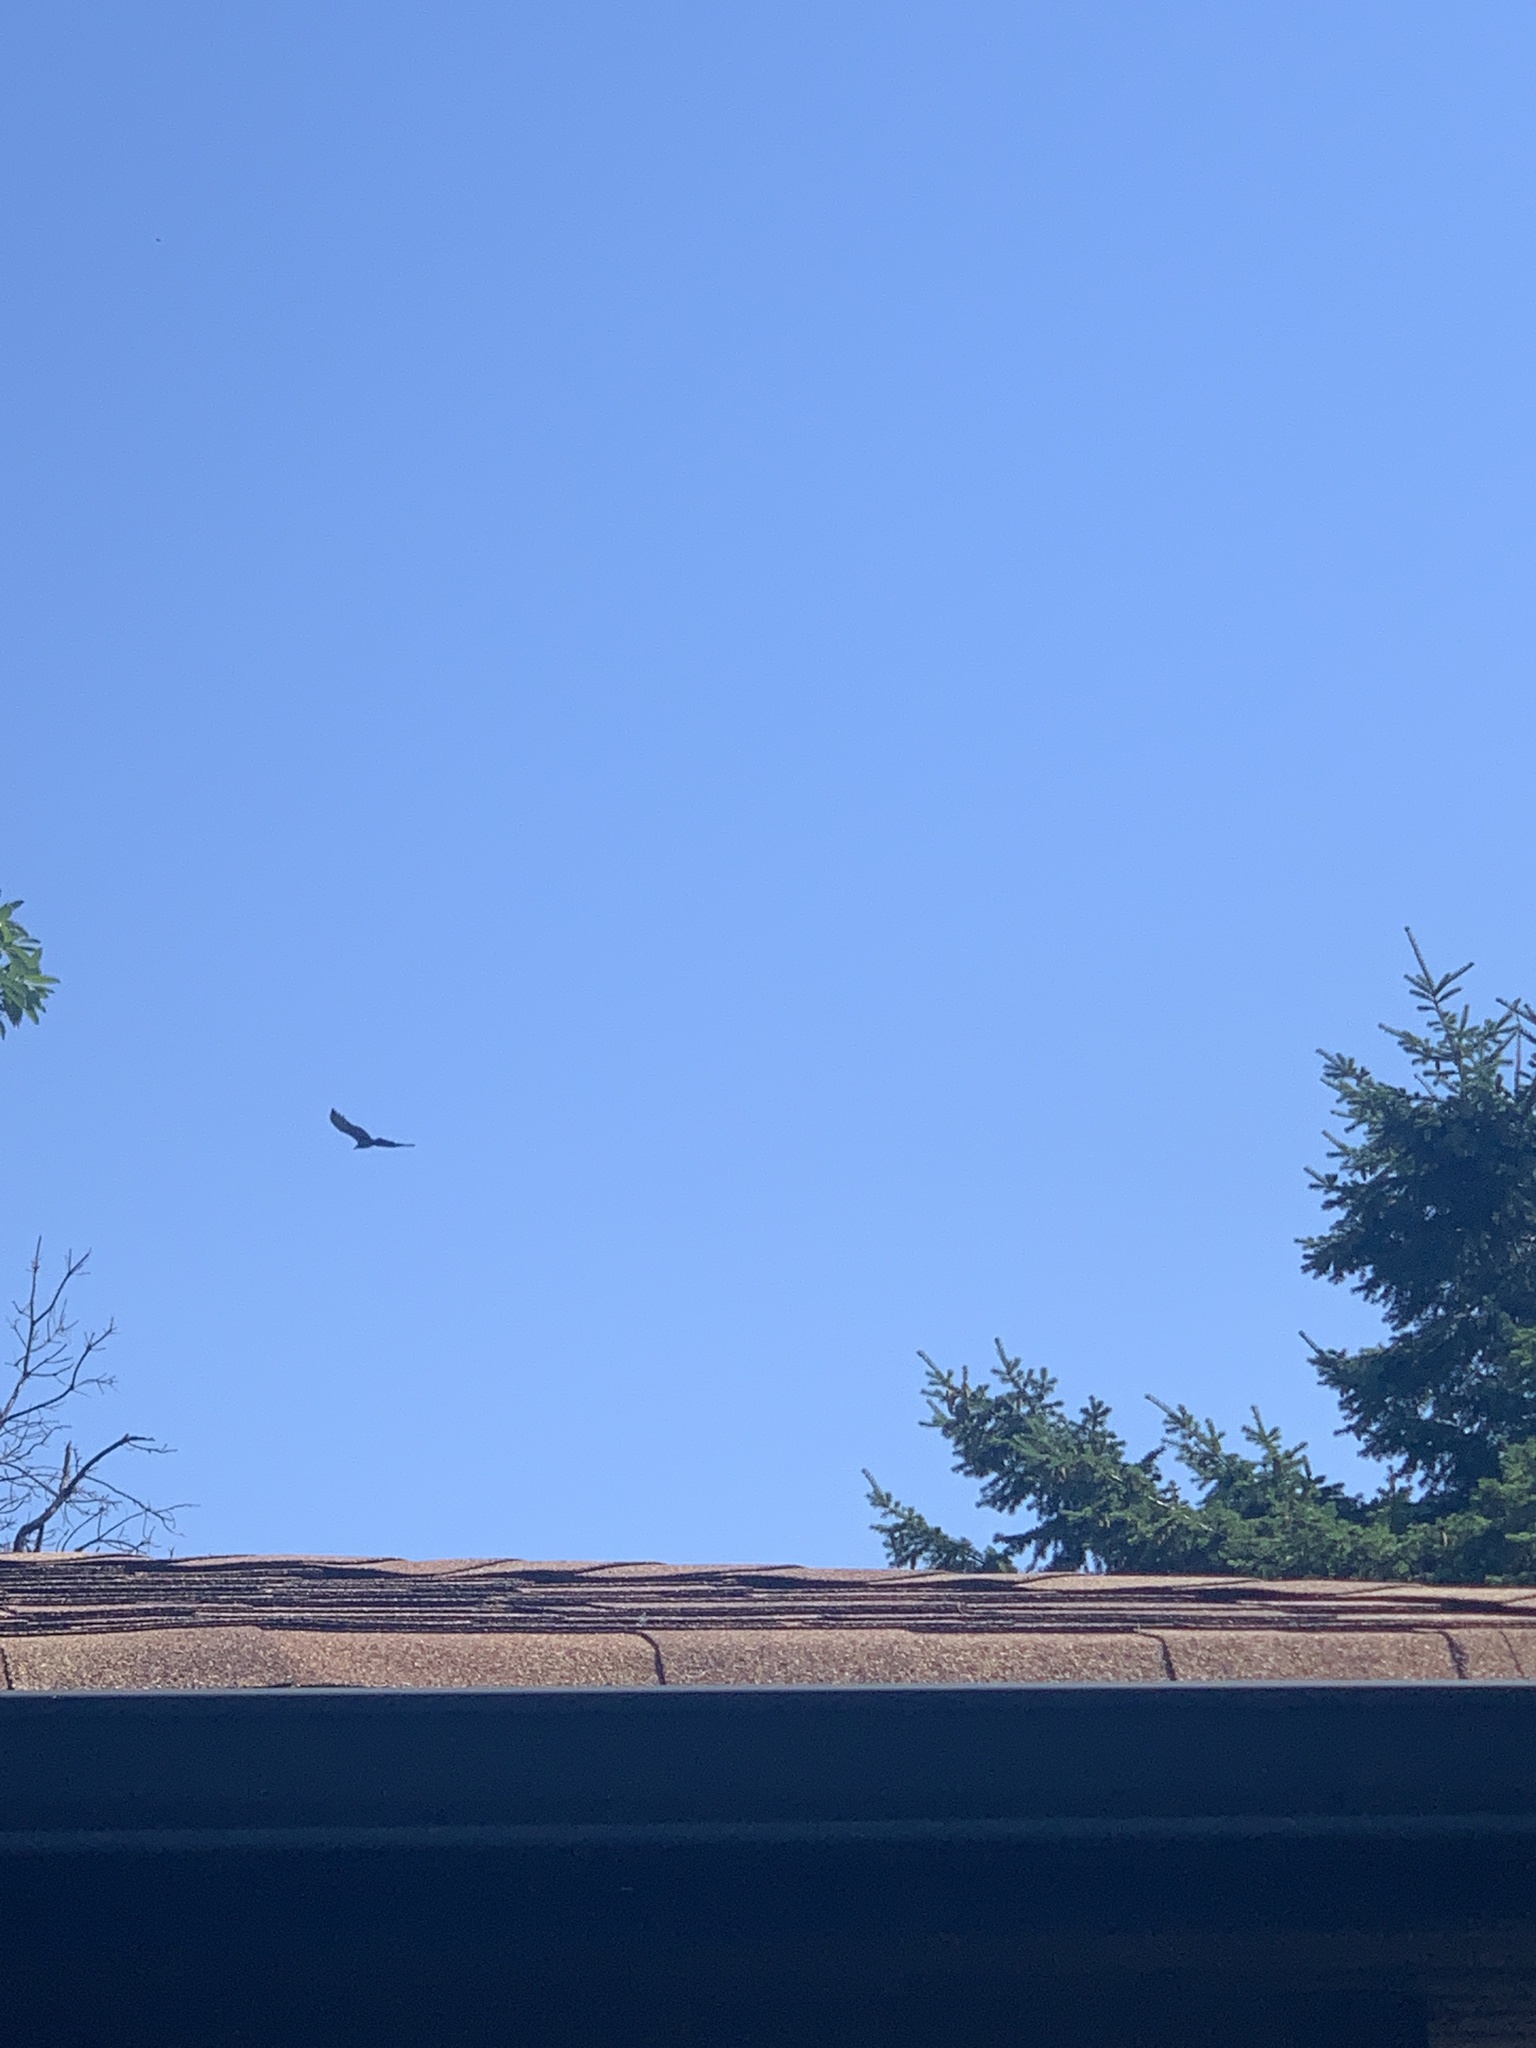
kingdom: Animalia
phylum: Chordata
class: Aves
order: Accipitriformes
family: Cathartidae
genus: Cathartes
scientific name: Cathartes aura
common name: Turkey vulture
